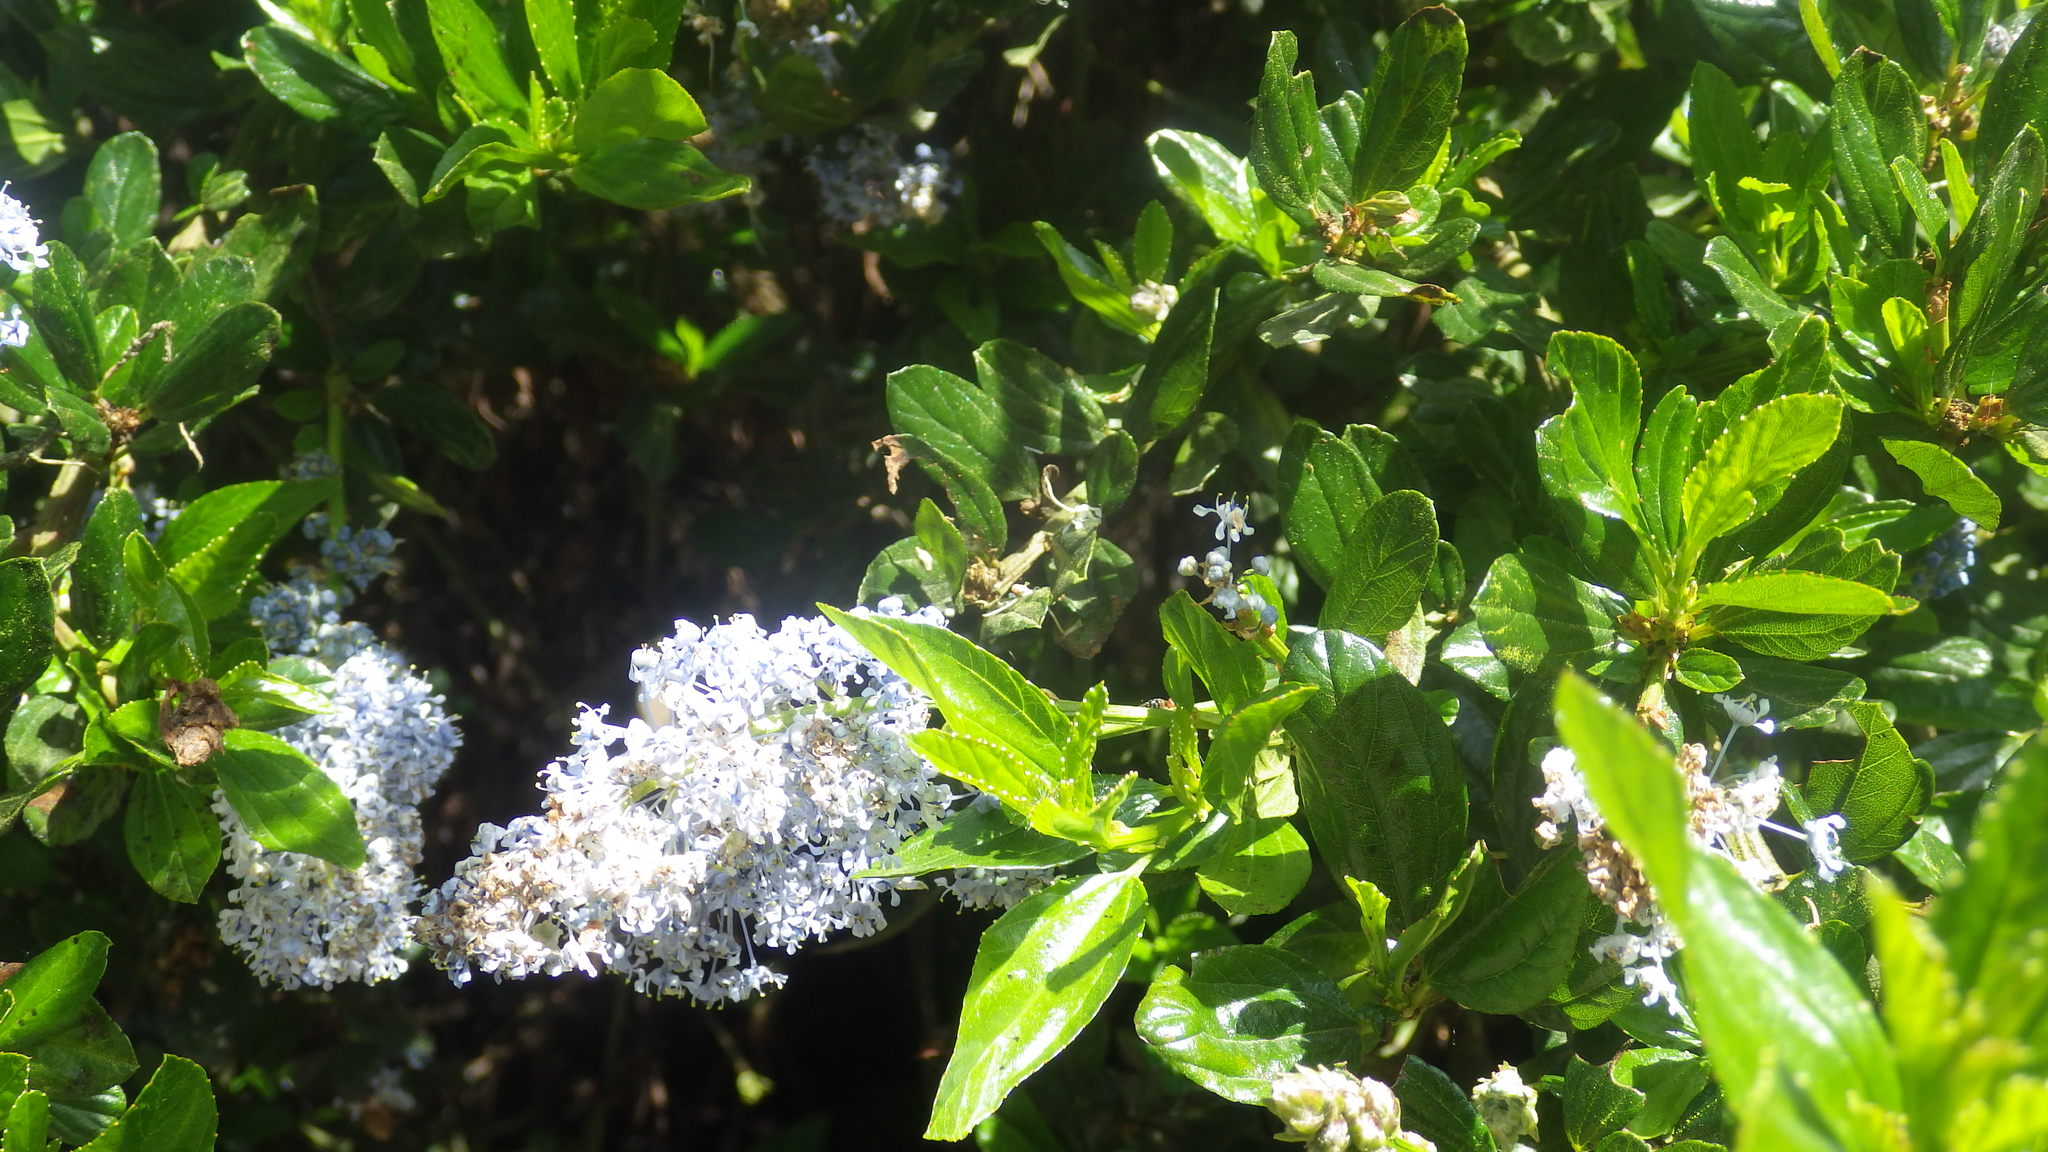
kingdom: Plantae
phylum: Tracheophyta
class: Magnoliopsida
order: Rosales
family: Rhamnaceae
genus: Ceanothus
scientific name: Ceanothus thyrsiflorus
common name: California-lilac
